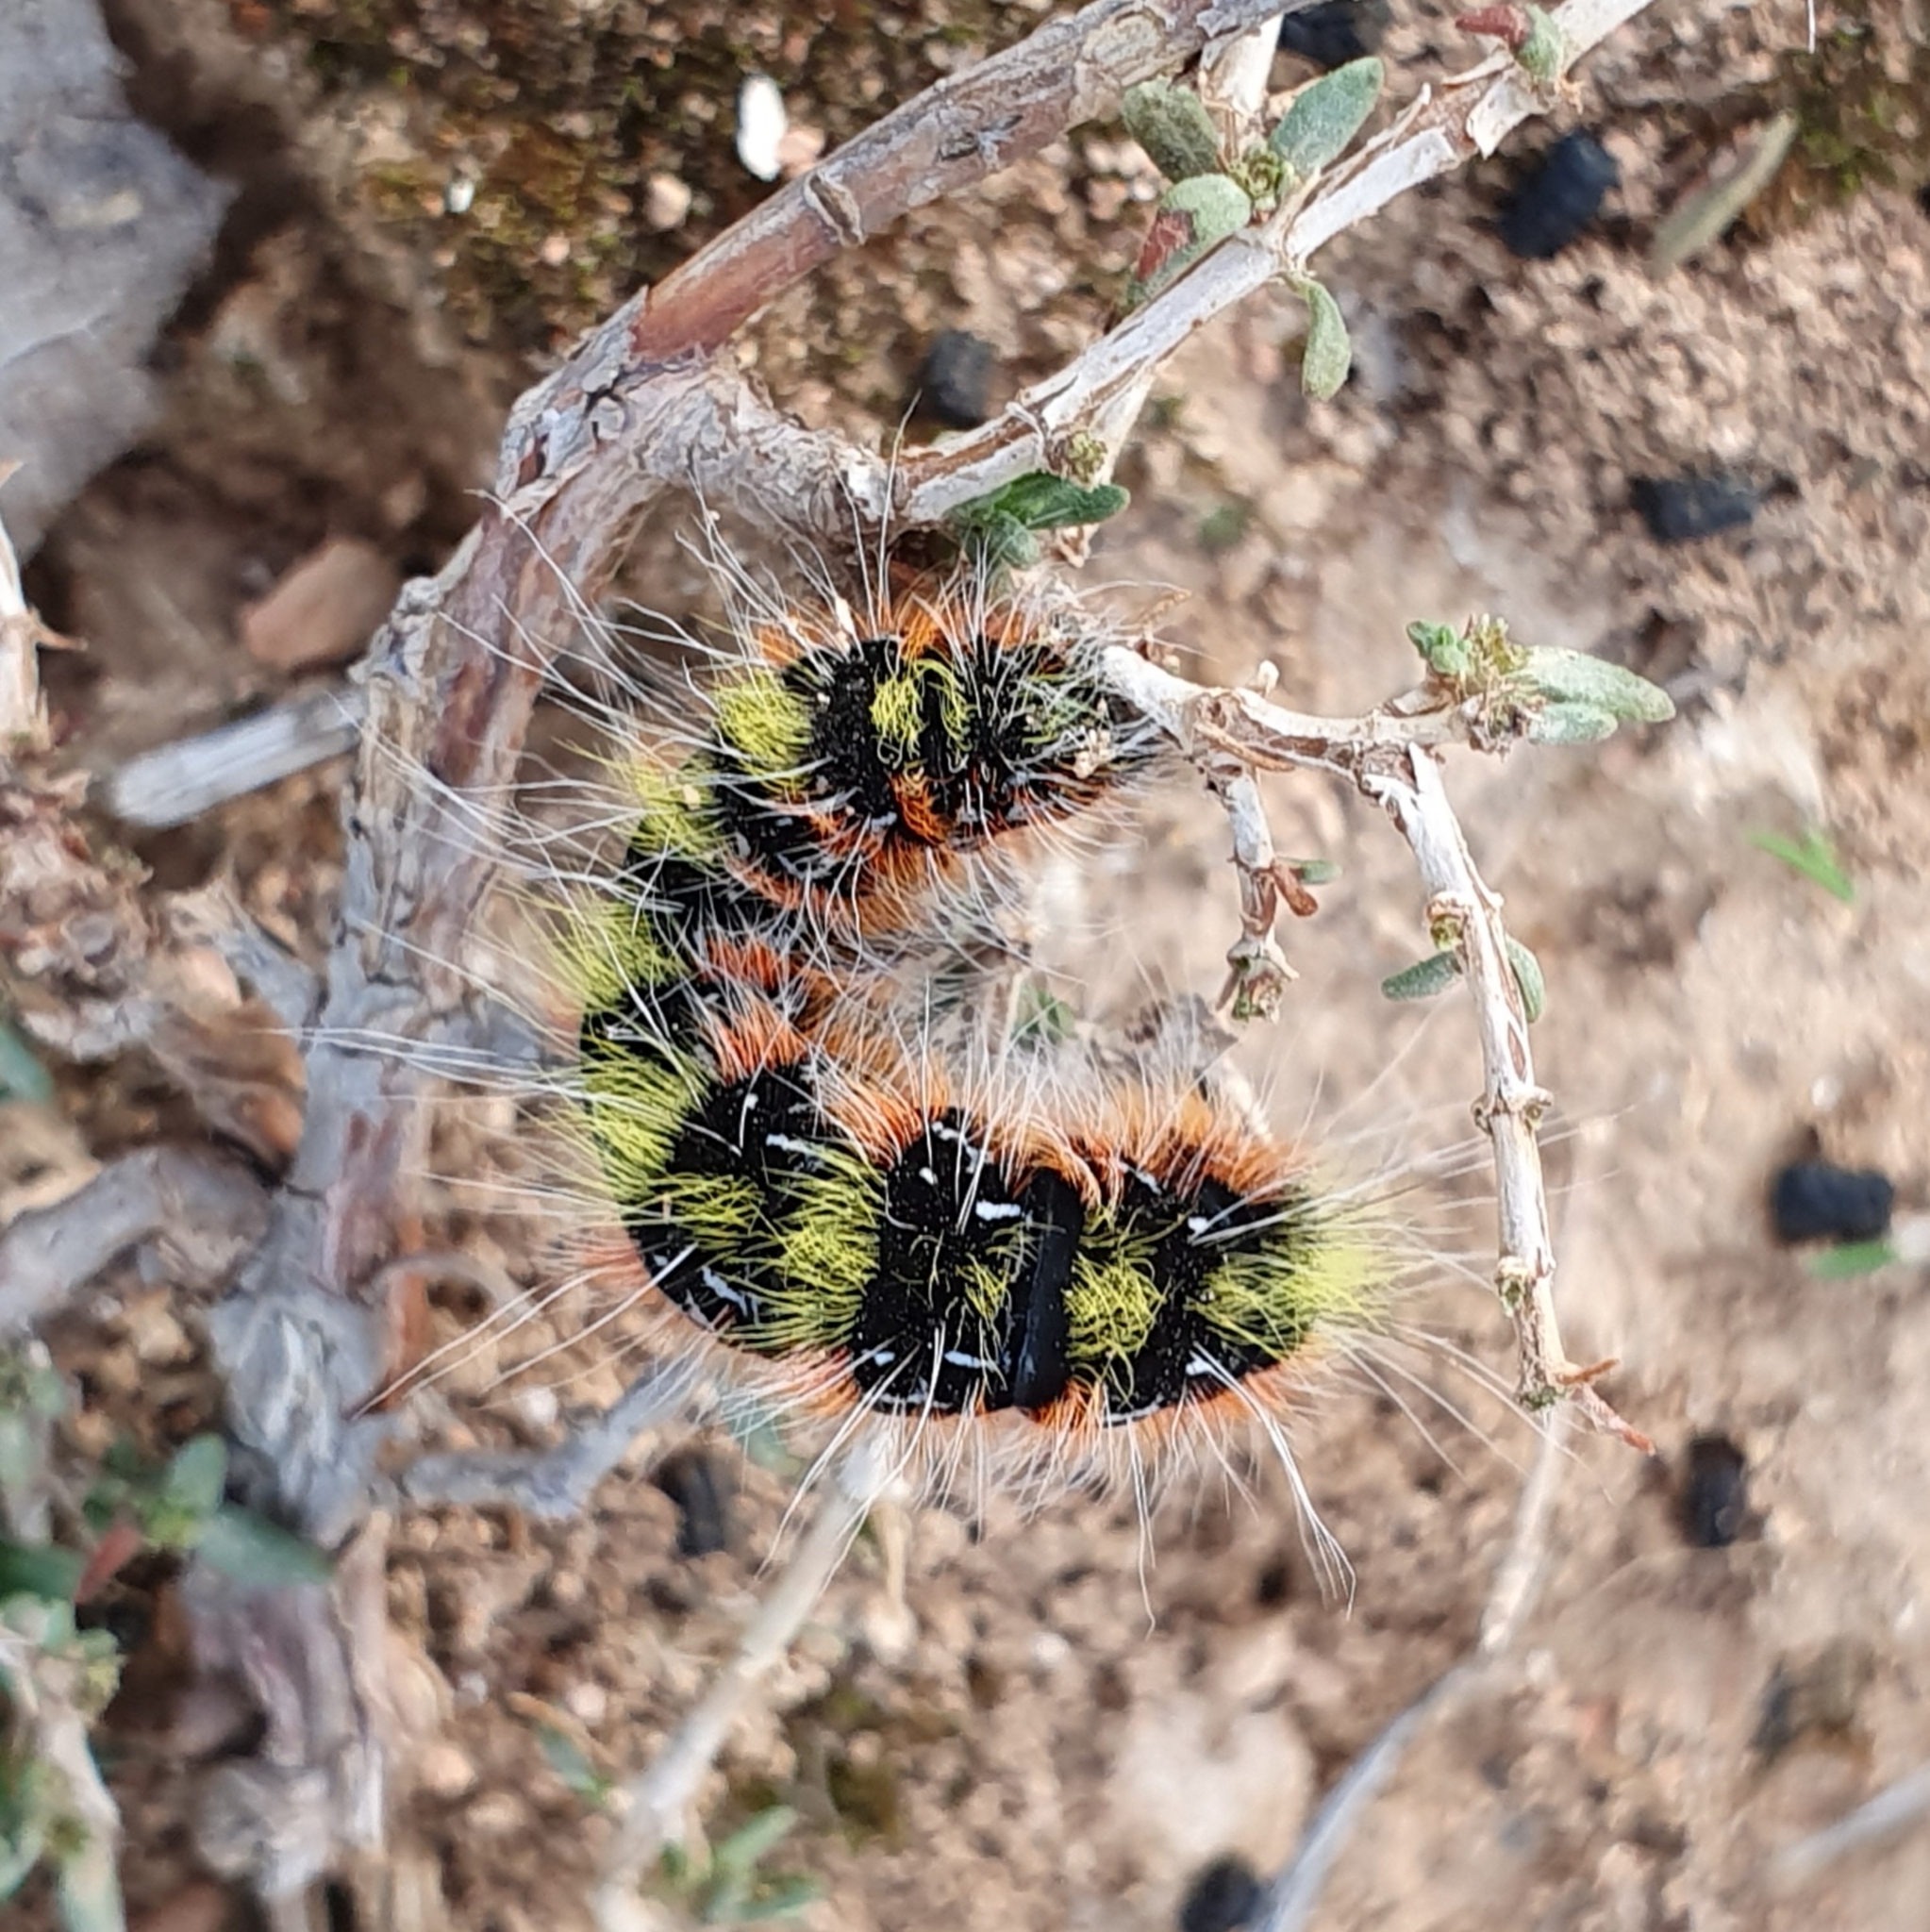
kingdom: Animalia
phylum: Arthropoda
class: Insecta
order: Lepidoptera
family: Lasiocampidae
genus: Psilogaster
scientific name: Psilogaster algeriensis
